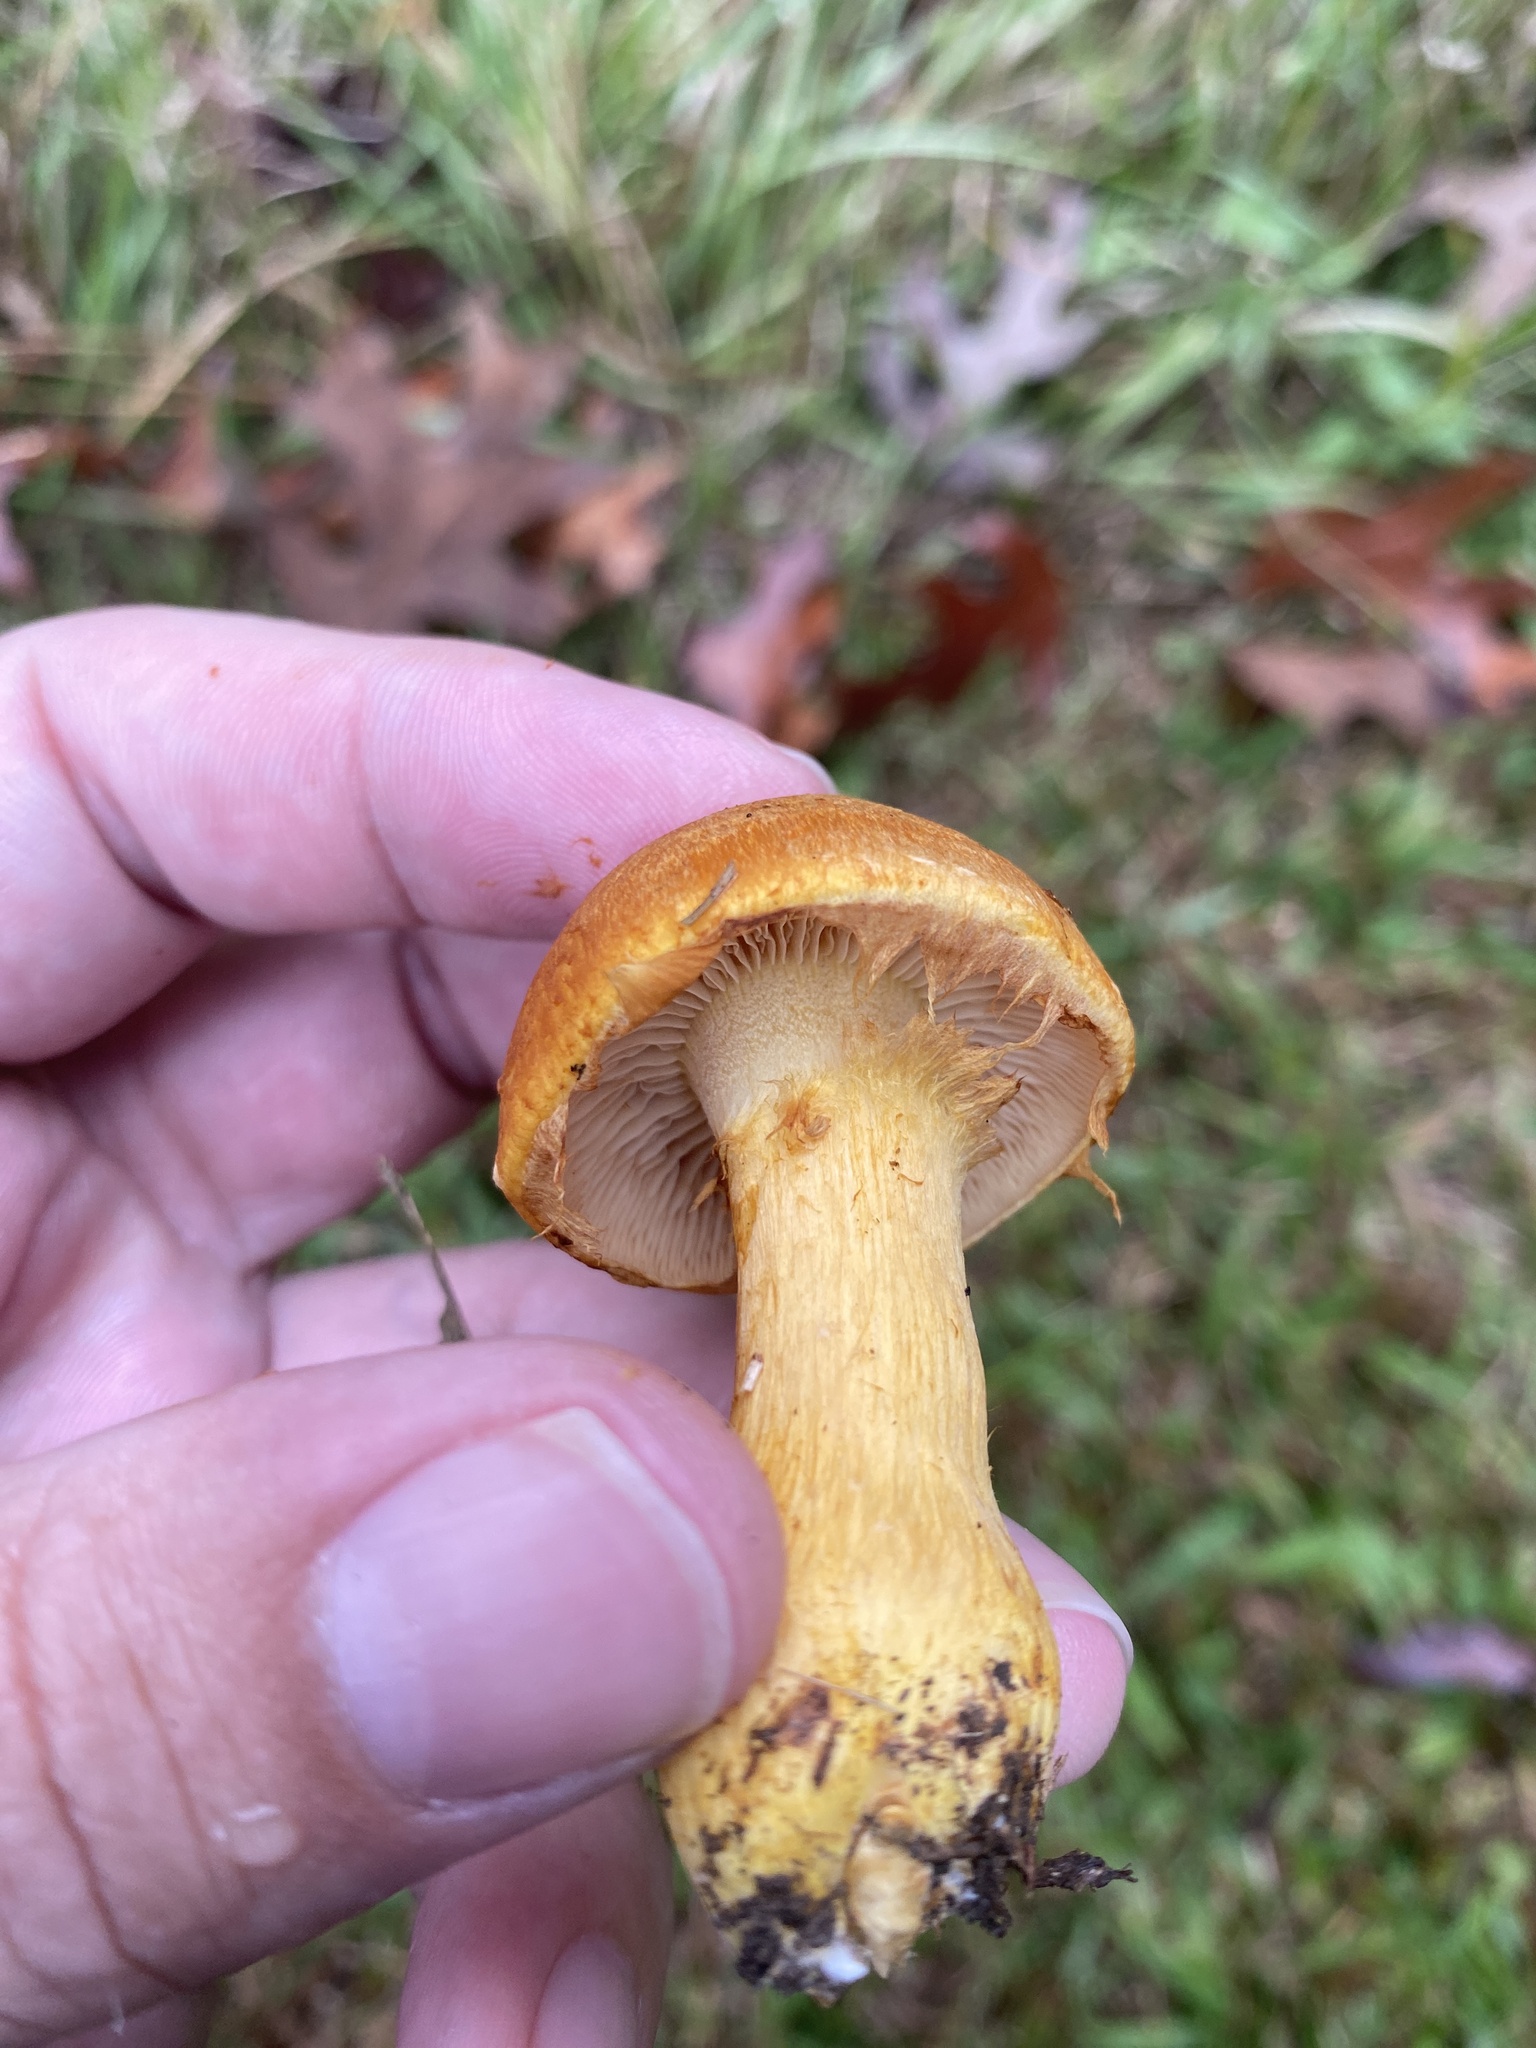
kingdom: Fungi
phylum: Basidiomycota
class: Agaricomycetes
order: Agaricales
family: Hymenogastraceae
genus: Gymnopilus
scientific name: Gymnopilus subspectabilis
